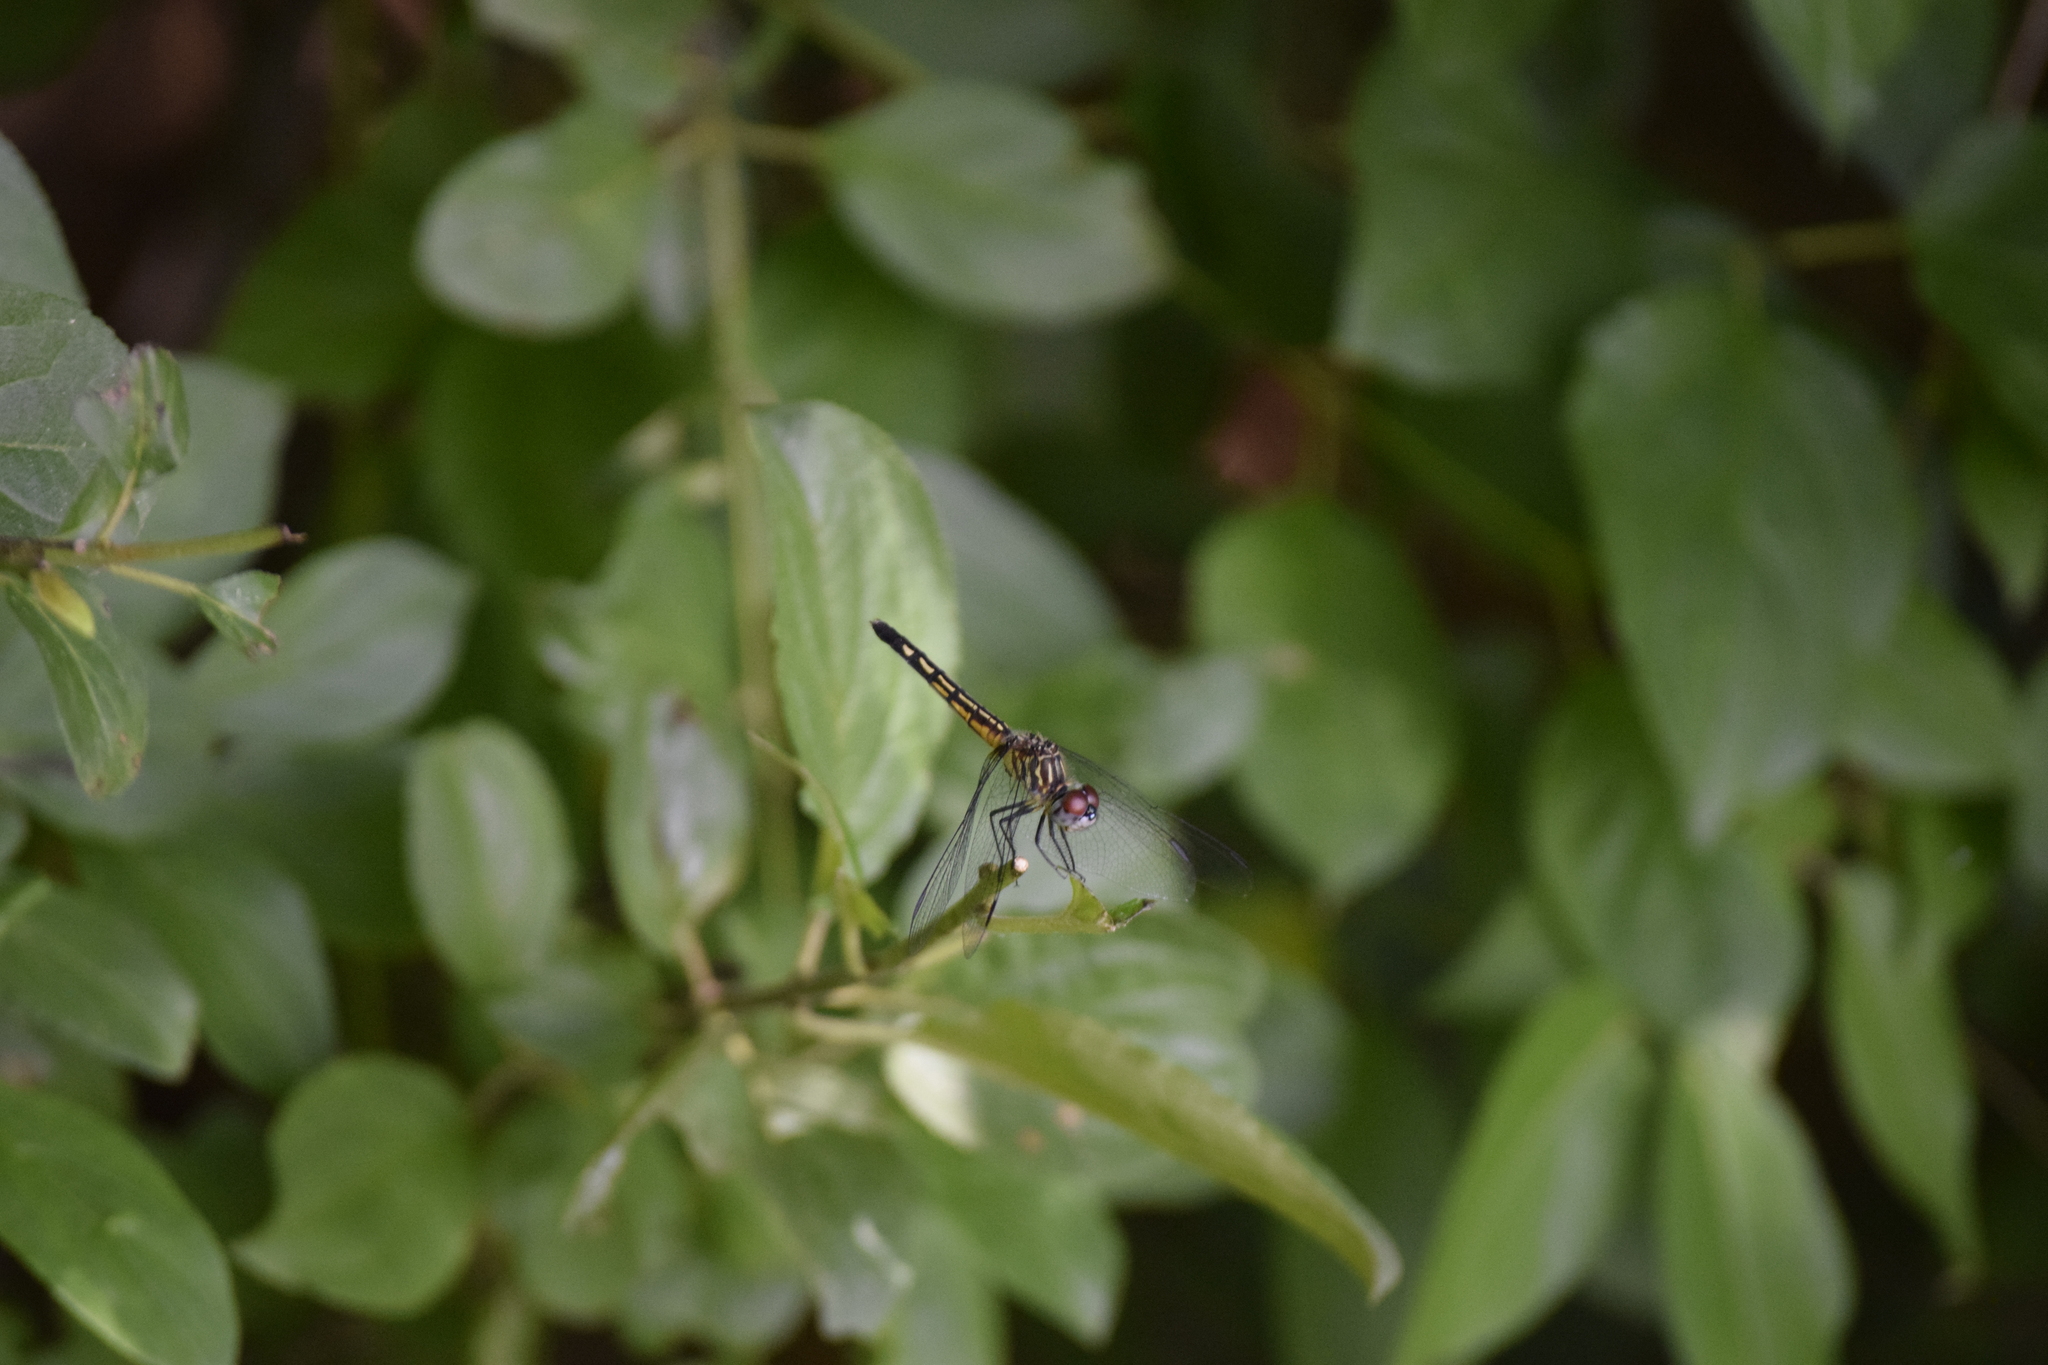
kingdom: Animalia
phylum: Arthropoda
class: Insecta
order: Odonata
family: Libellulidae
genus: Pachydiplax
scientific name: Pachydiplax longipennis
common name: Blue dasher
